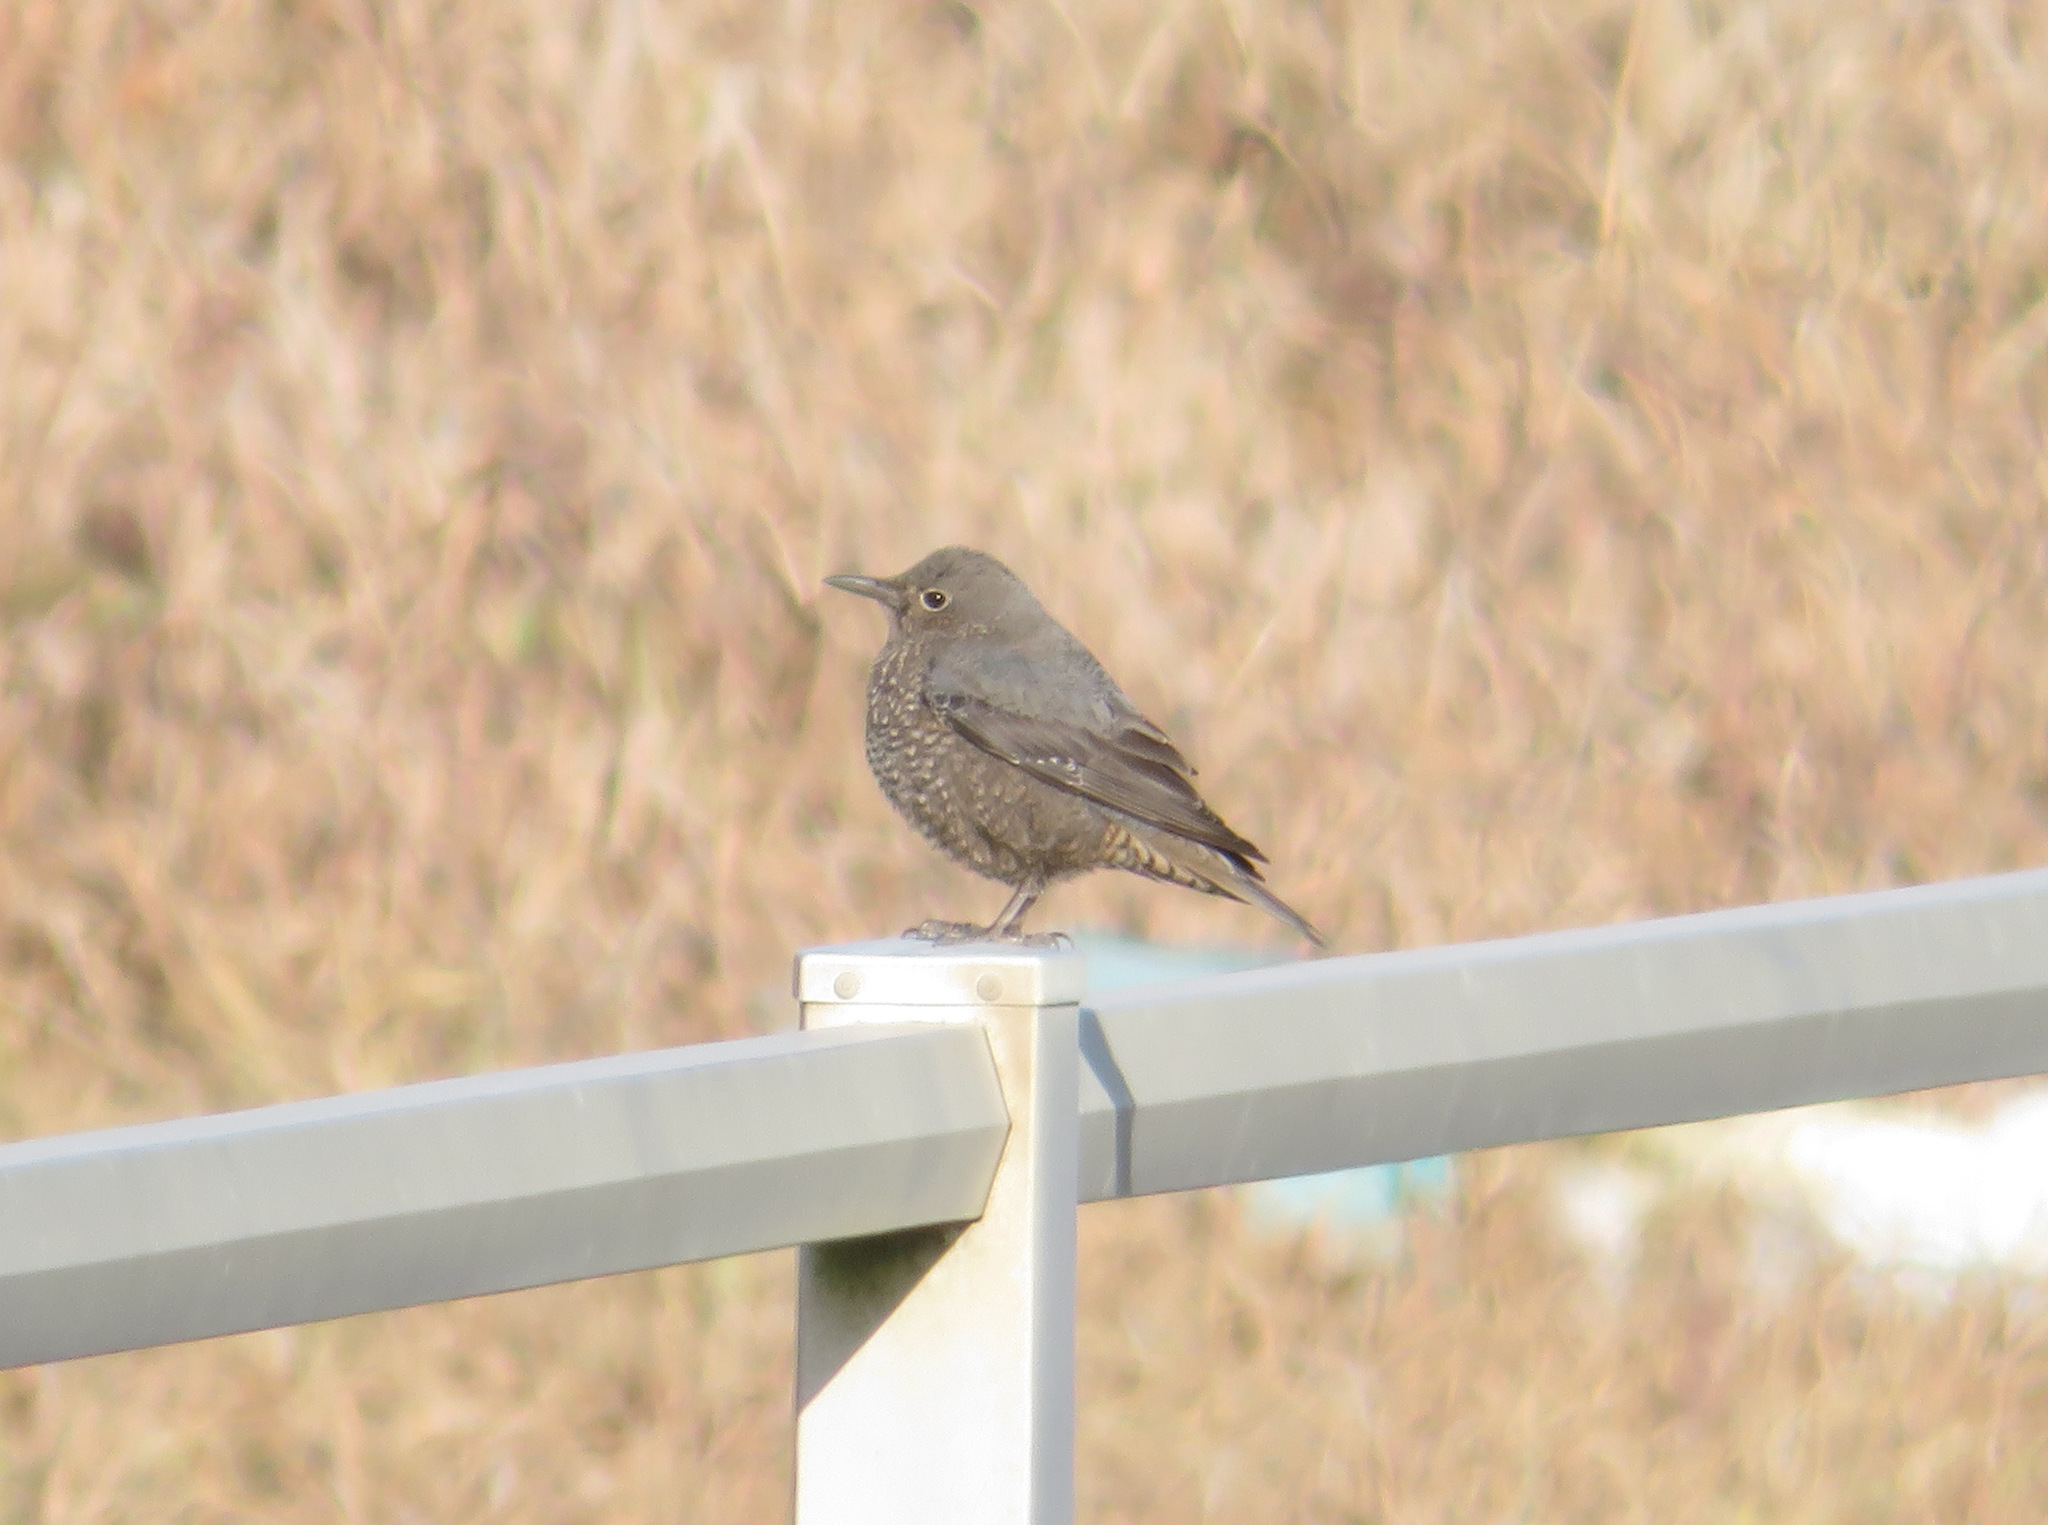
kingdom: Animalia
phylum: Chordata
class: Aves
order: Passeriformes
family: Muscicapidae
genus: Monticola
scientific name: Monticola solitarius
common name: Blue rock thrush
